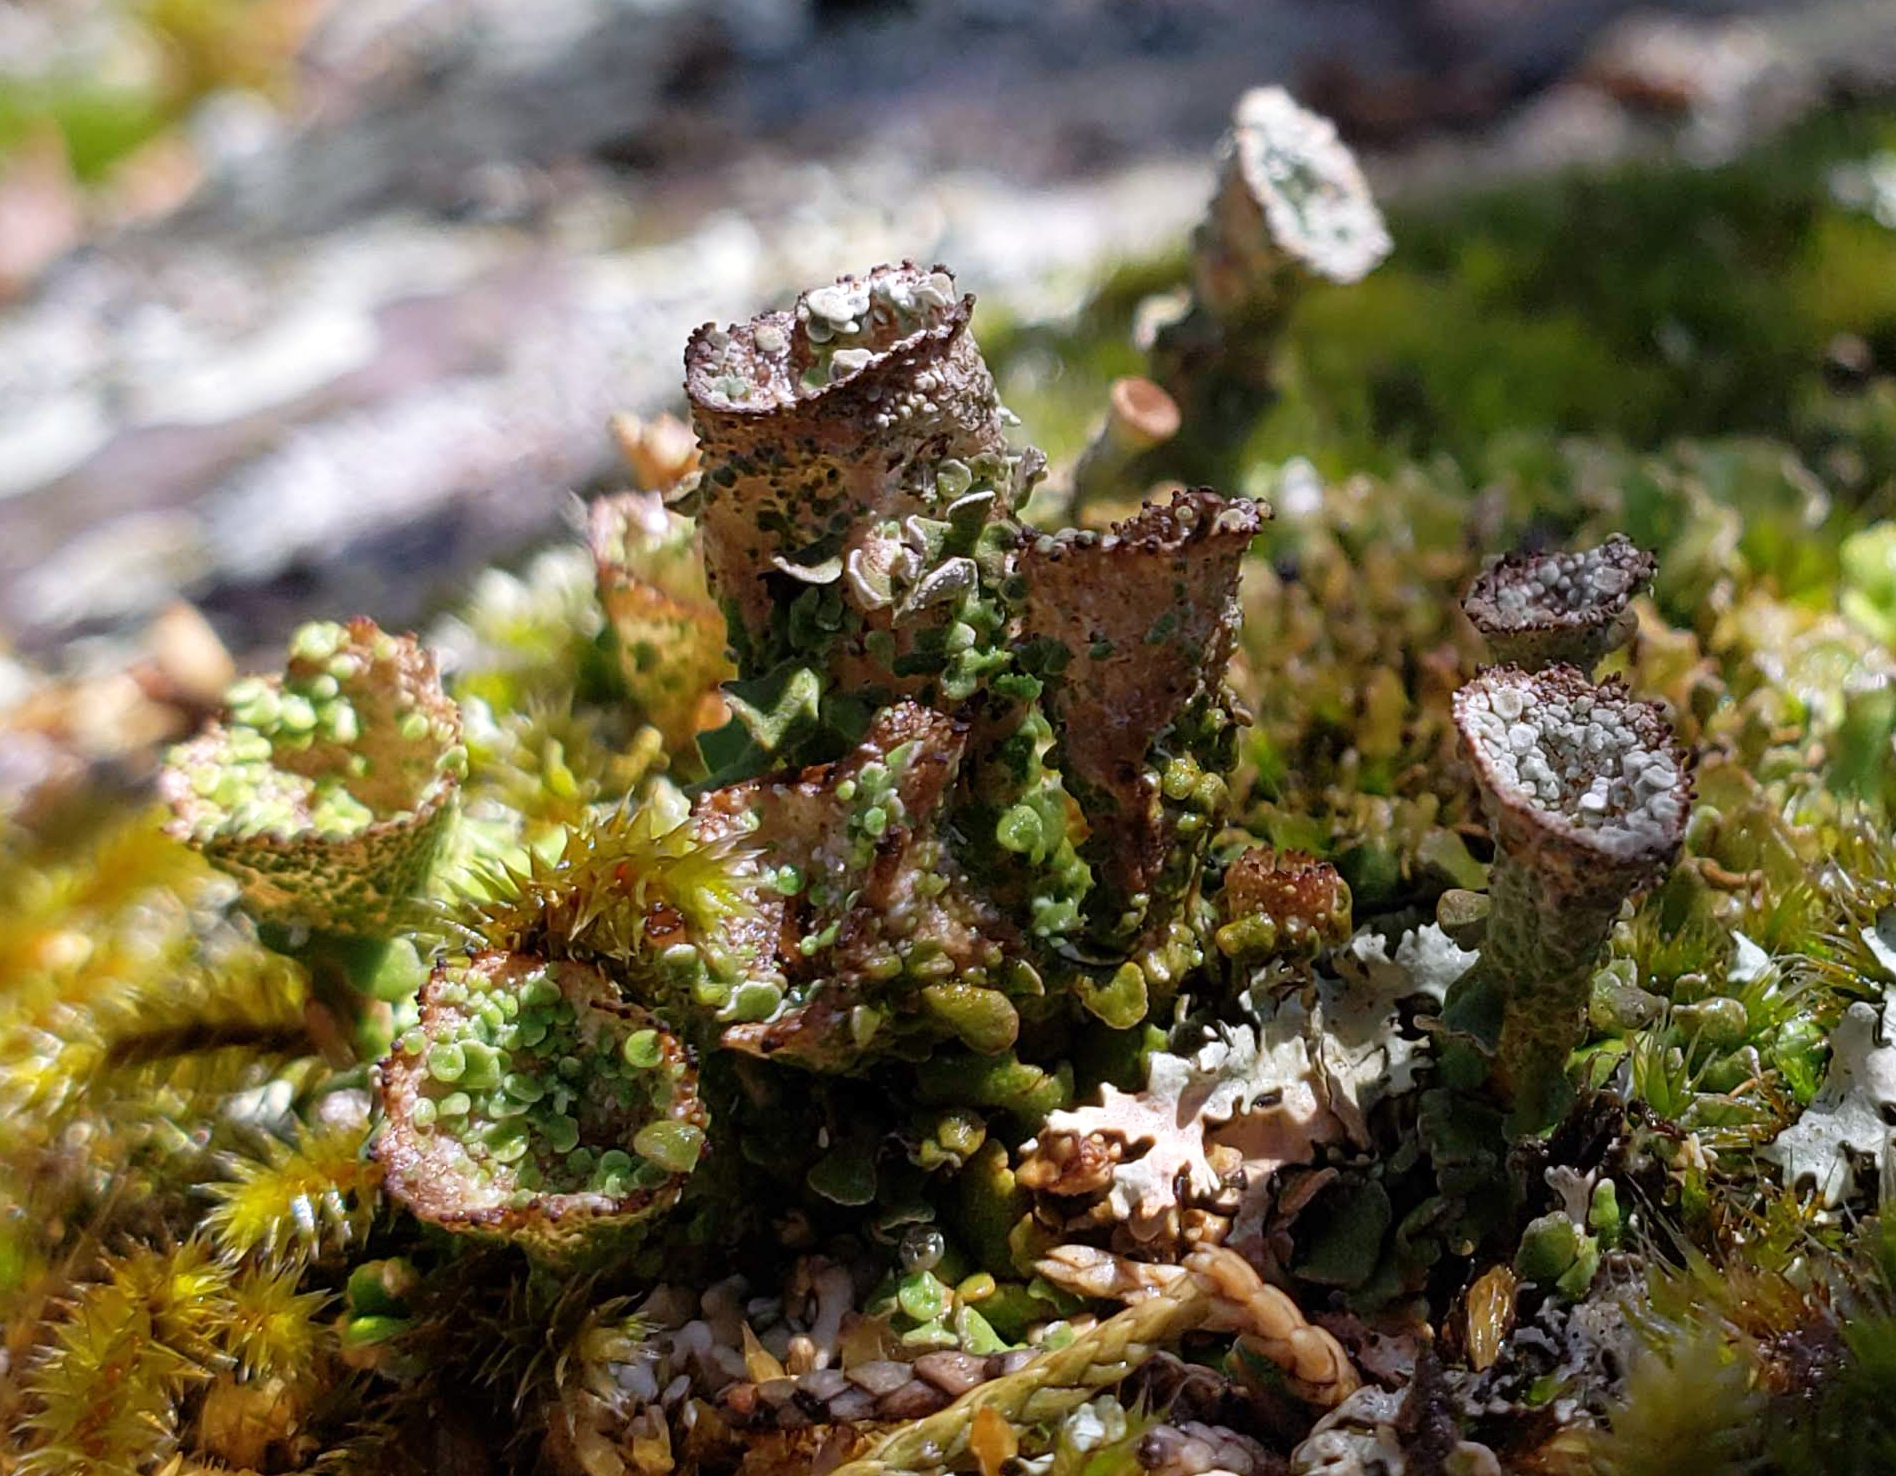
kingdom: Fungi
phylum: Ascomycota
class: Lecanoromycetes
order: Lecanorales
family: Cladoniaceae
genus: Cladonia
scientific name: Cladonia pyxidata
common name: Pebbled pixie cup
